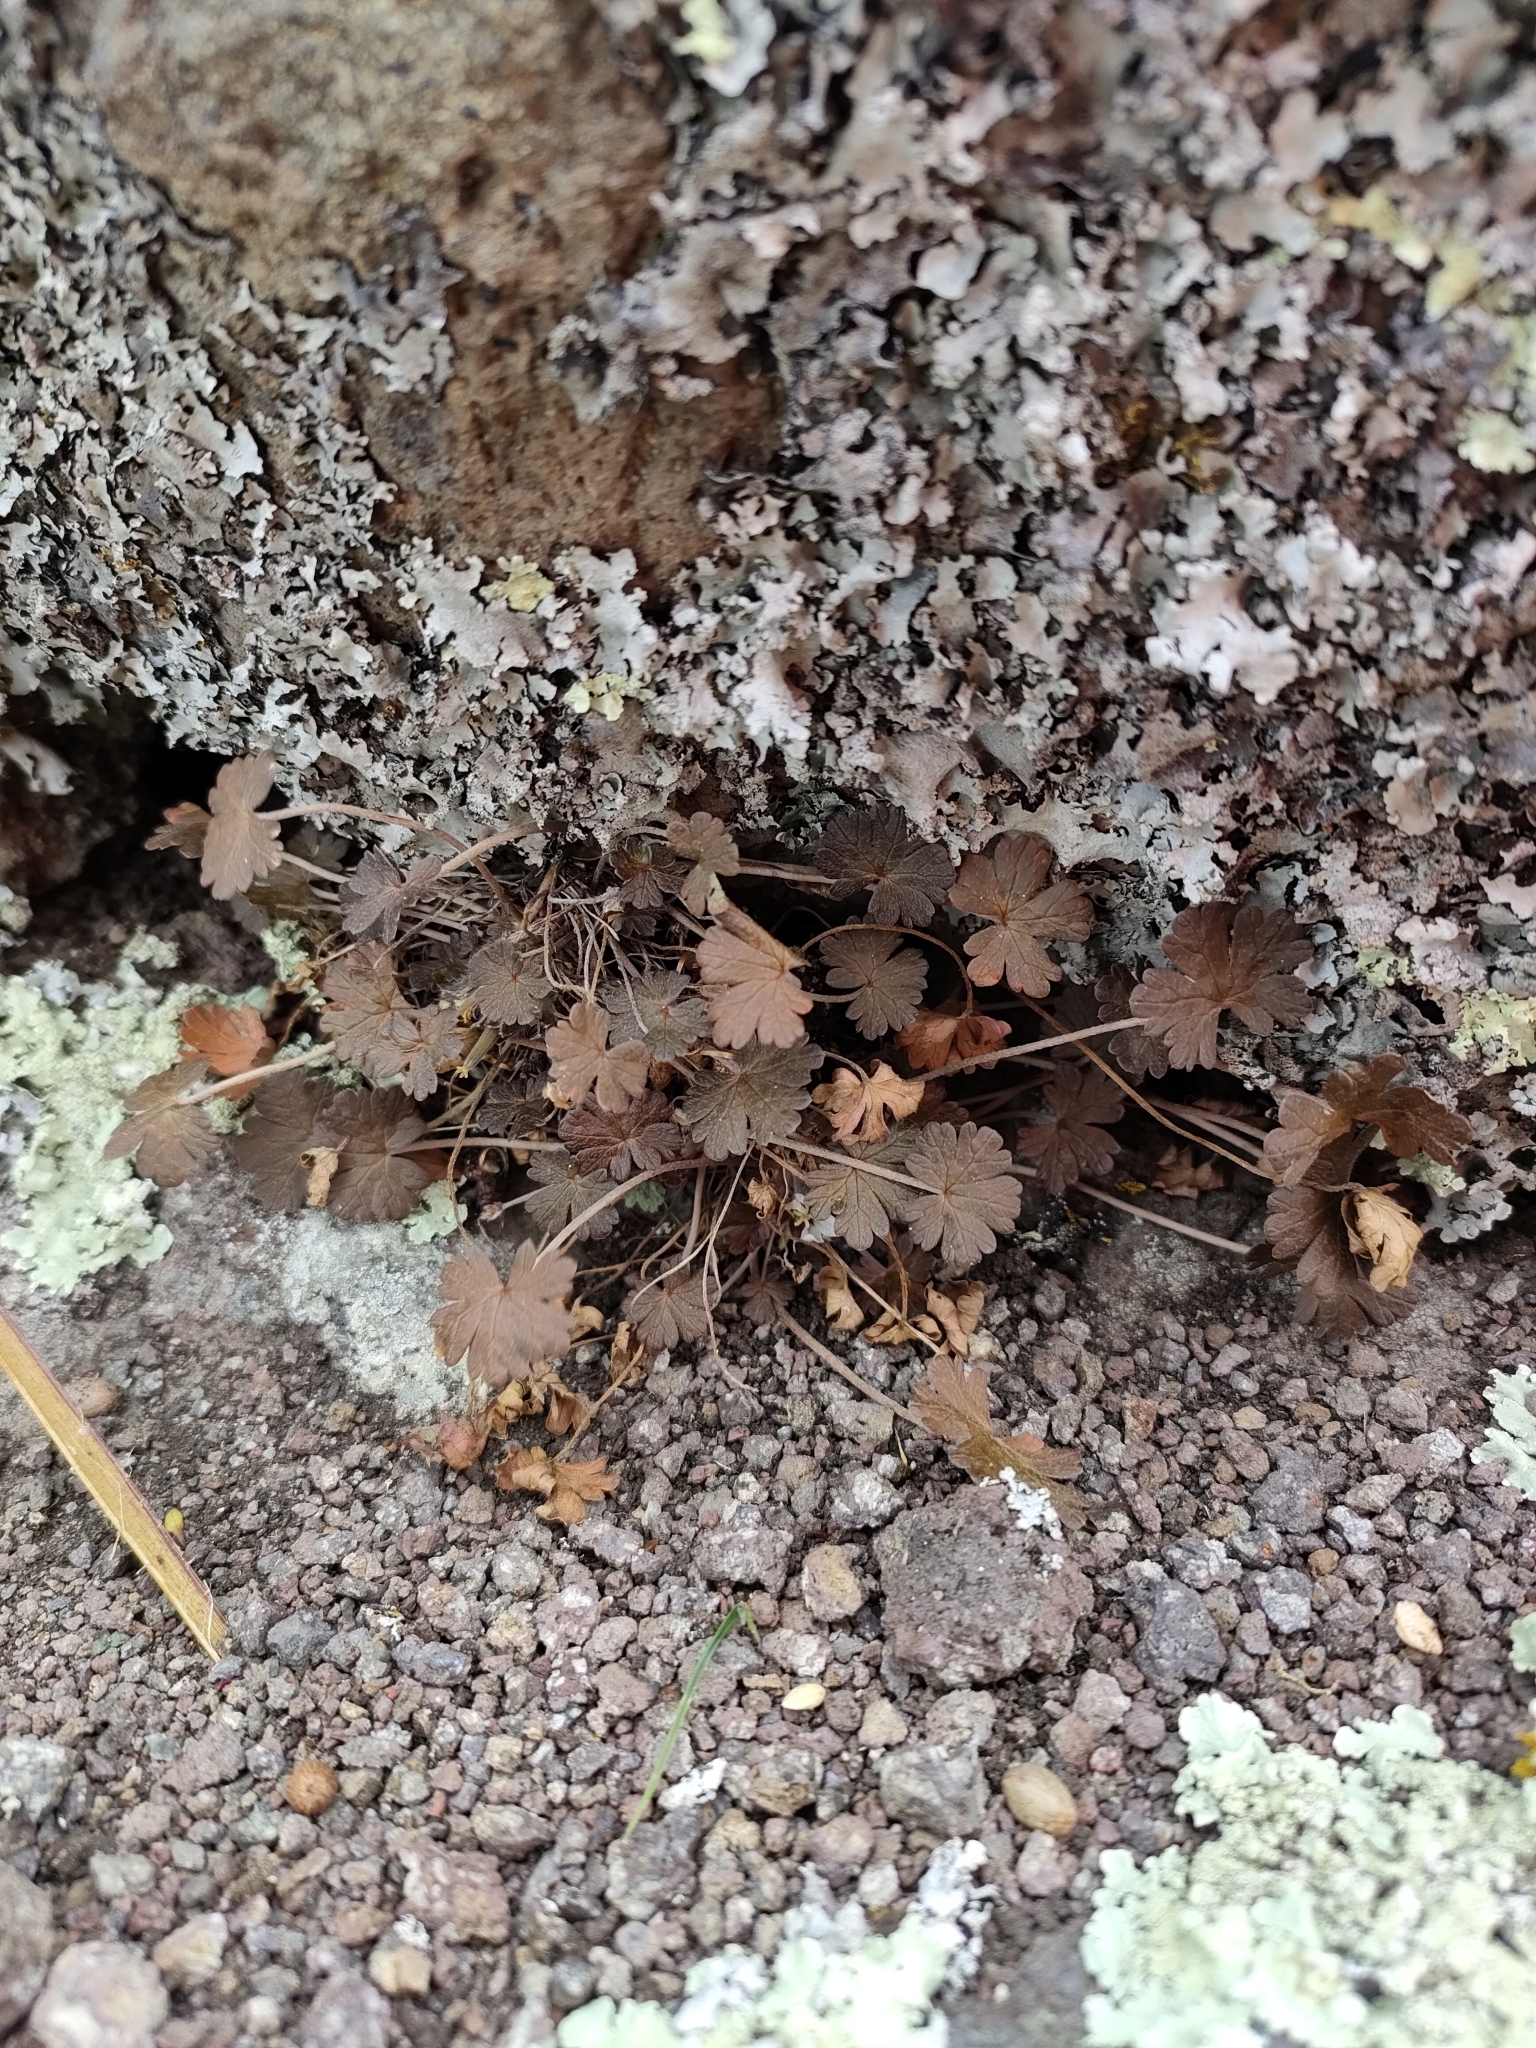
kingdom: Plantae
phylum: Tracheophyta
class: Magnoliopsida
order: Geraniales
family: Geraniaceae
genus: Geranium
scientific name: Geranium brevicaule
